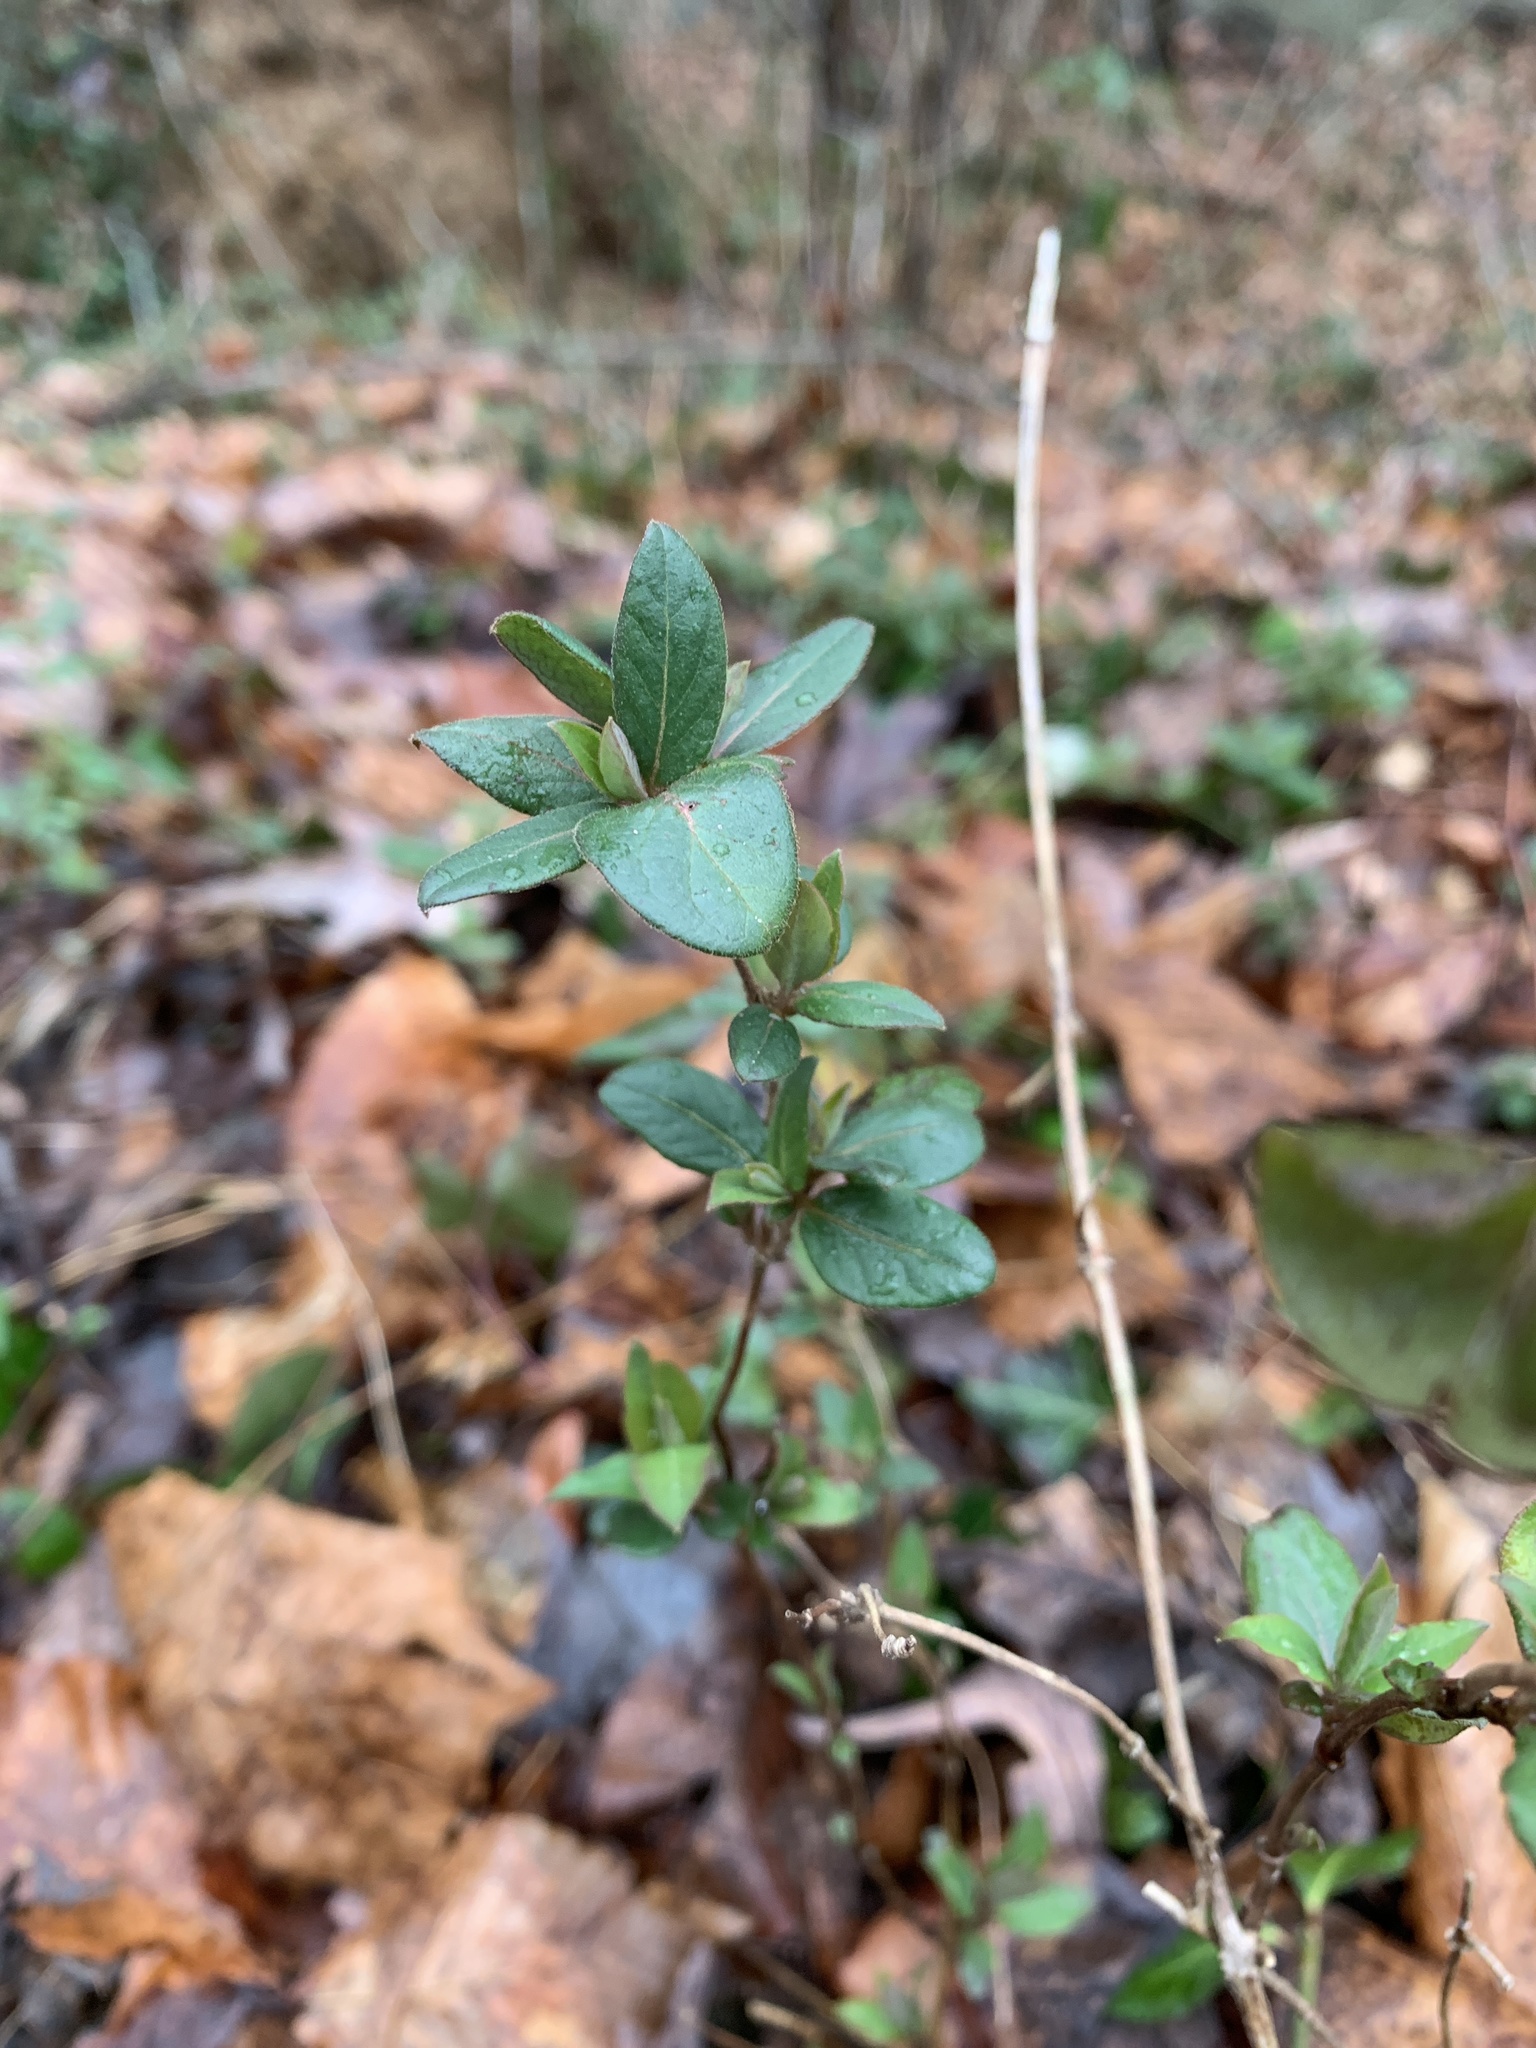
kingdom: Plantae
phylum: Tracheophyta
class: Magnoliopsida
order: Dipsacales
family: Caprifoliaceae
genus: Lonicera
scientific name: Lonicera japonica
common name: Japanese honeysuckle
